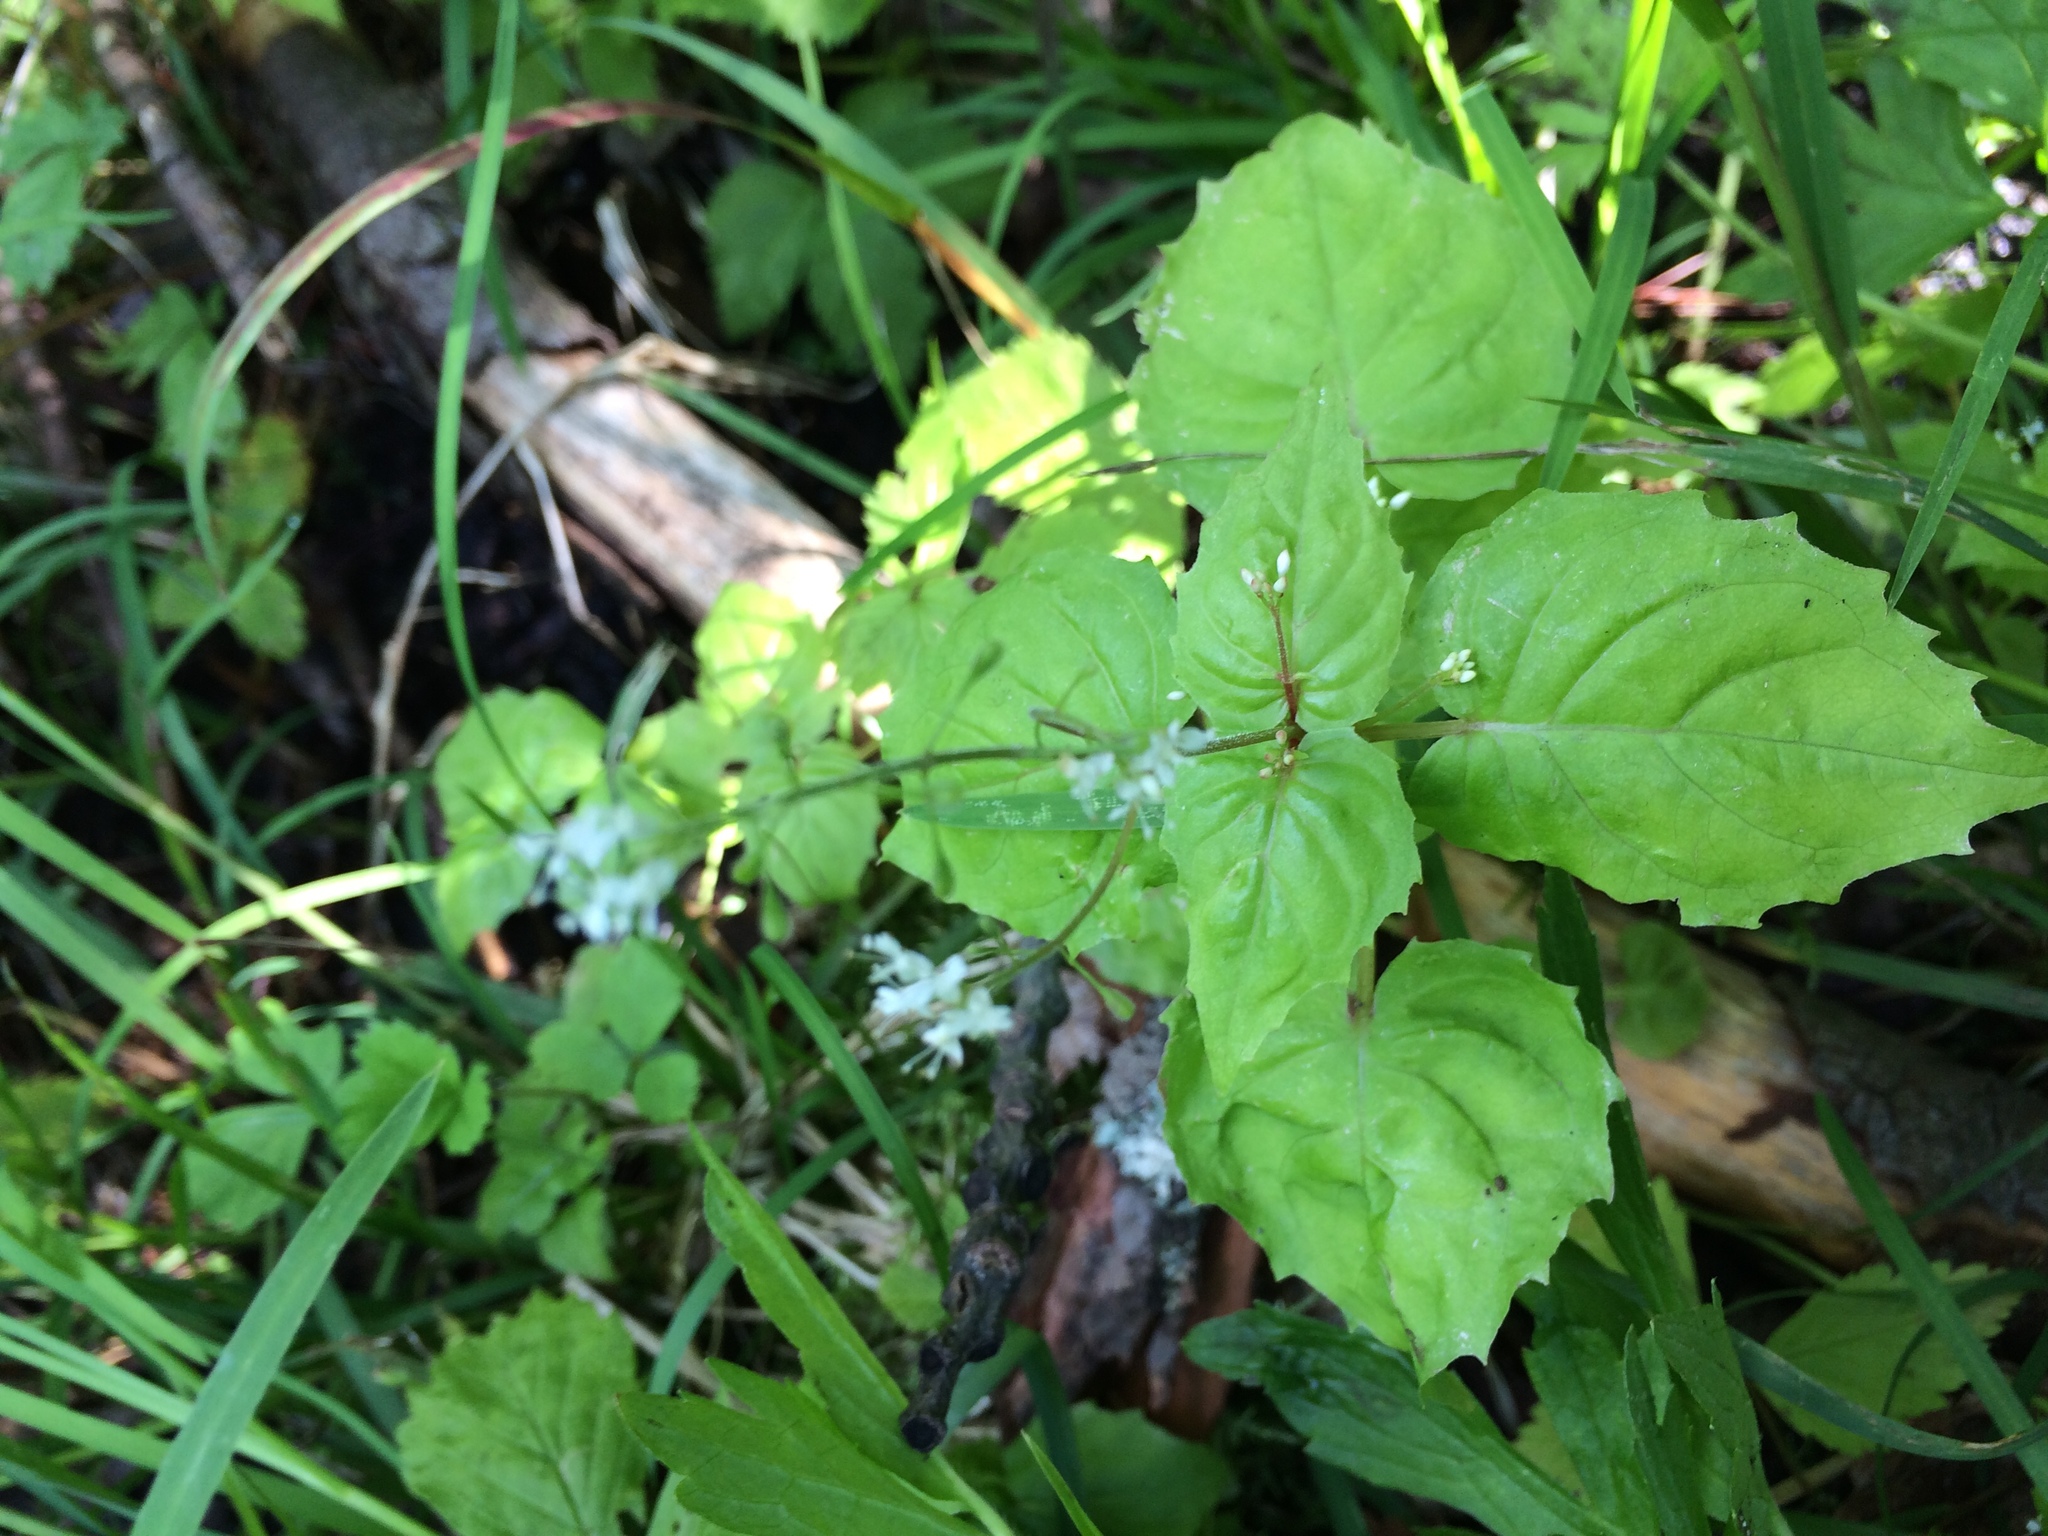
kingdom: Plantae
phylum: Tracheophyta
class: Magnoliopsida
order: Myrtales
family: Onagraceae
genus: Circaea
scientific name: Circaea alpina
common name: Alpine enchanter's-nightshade
